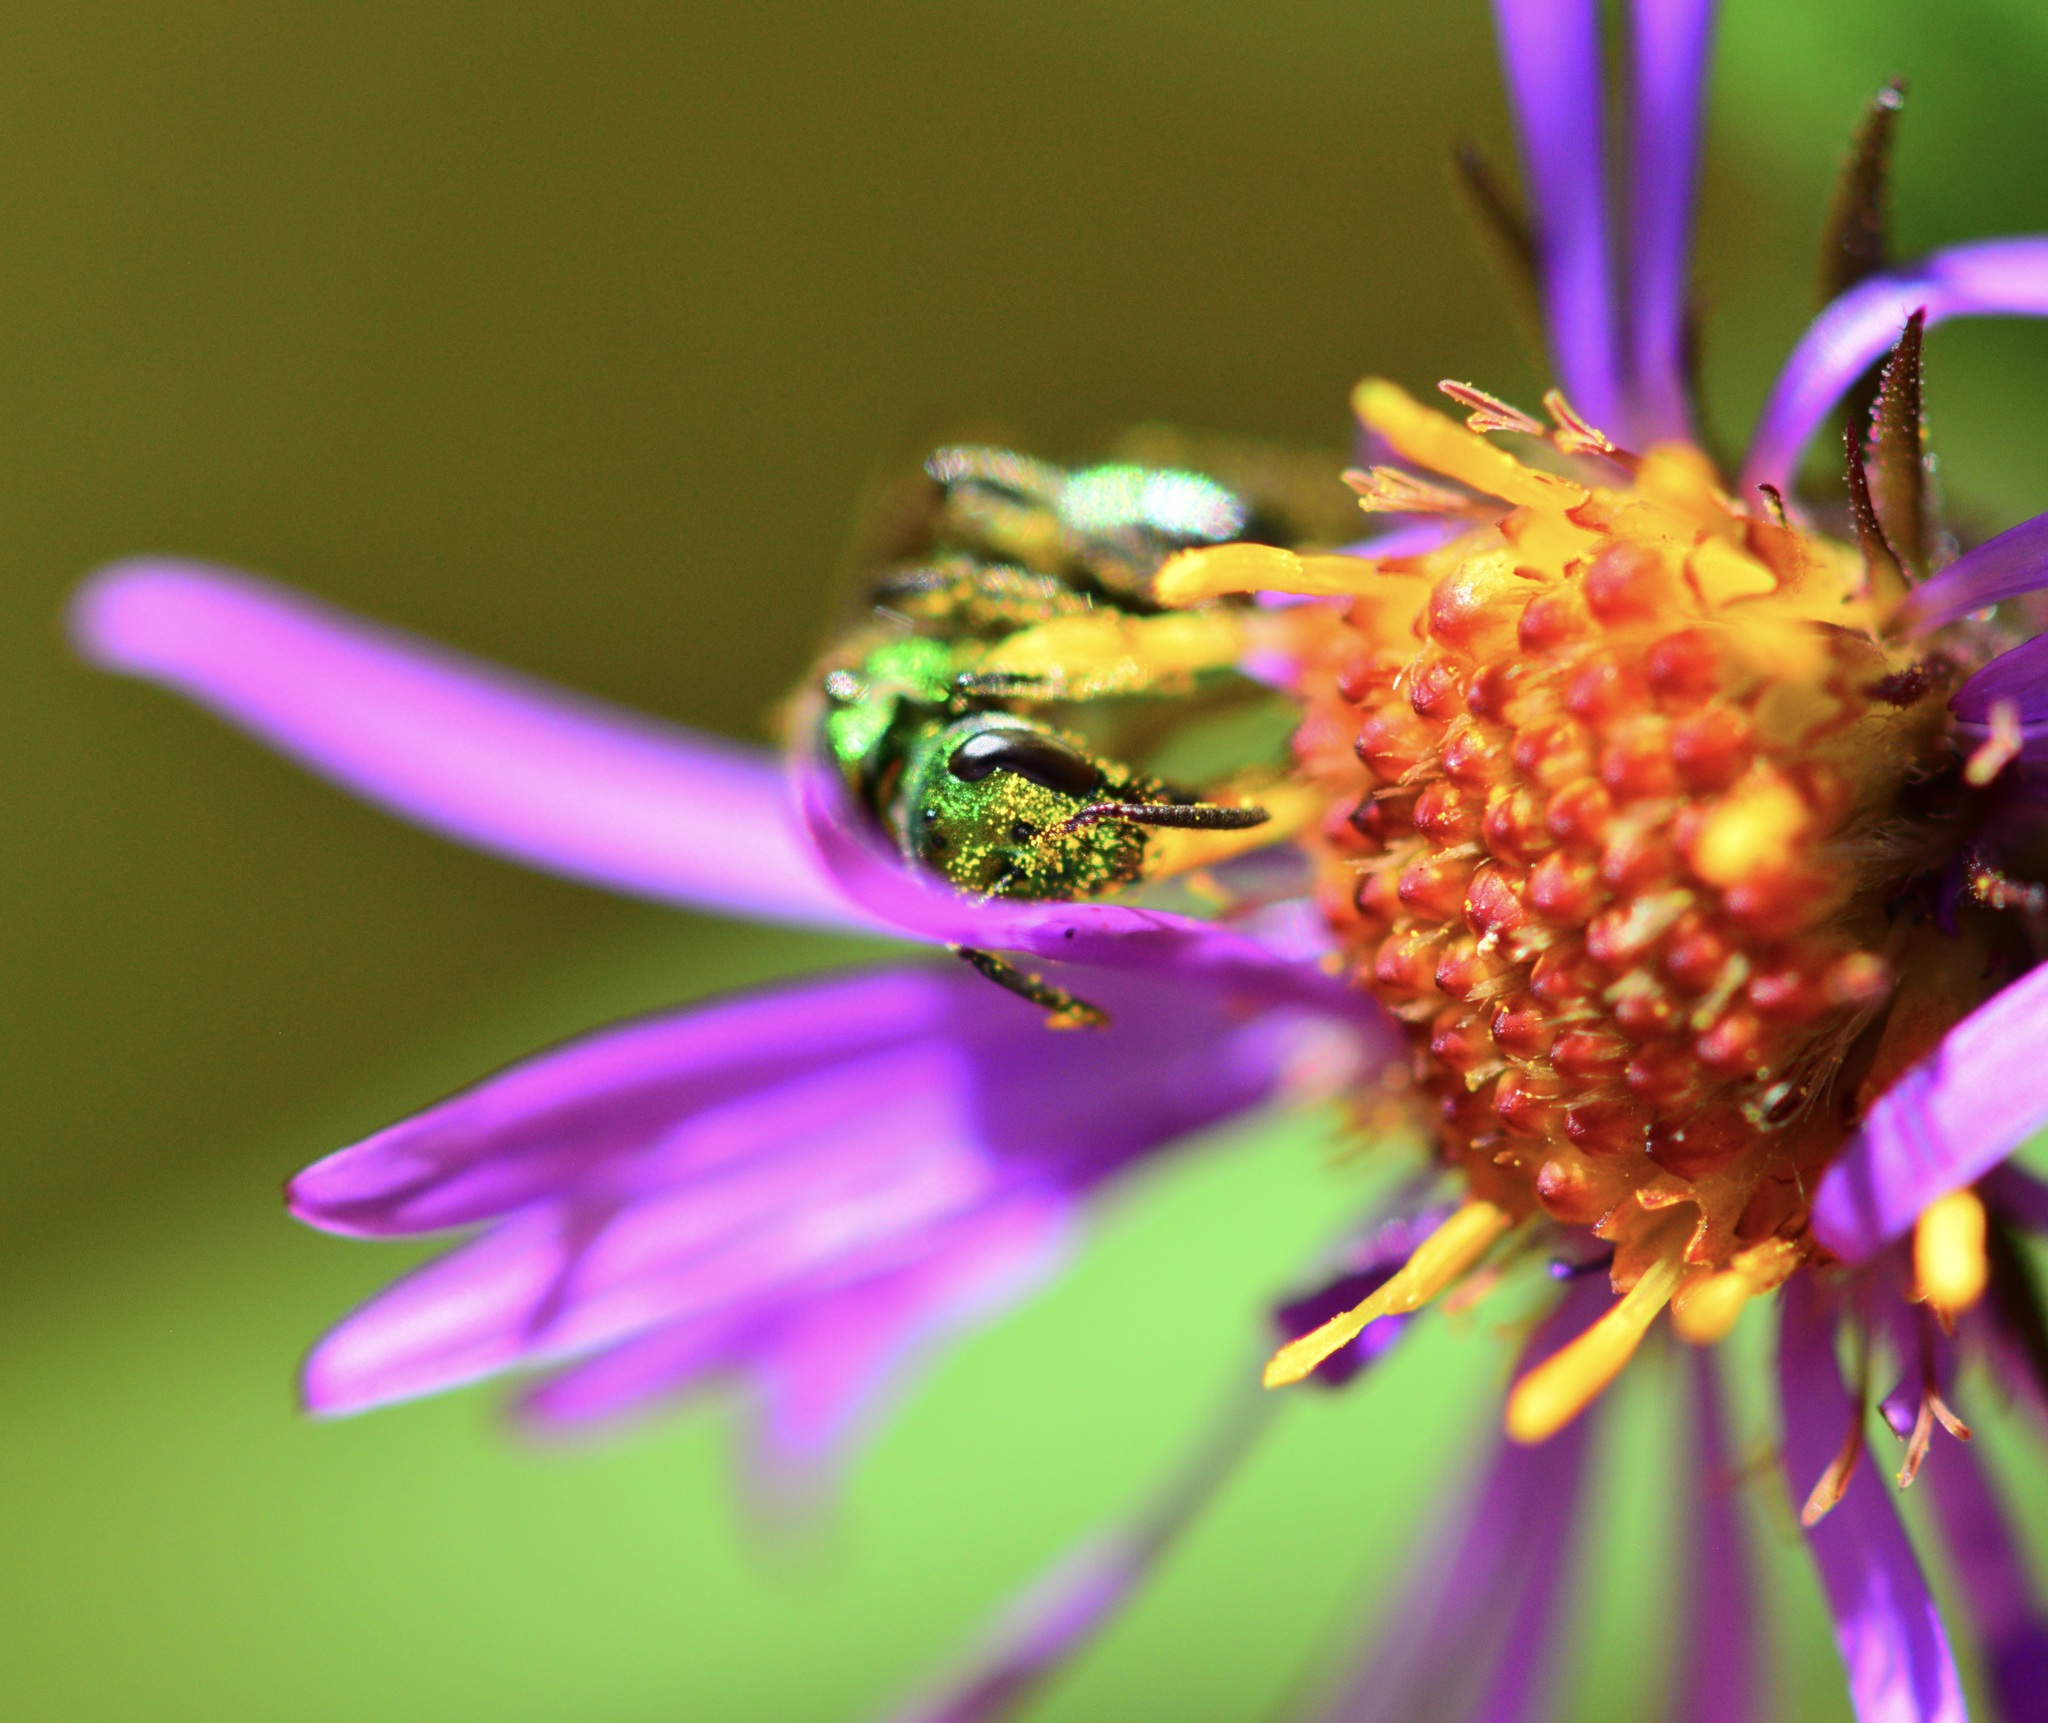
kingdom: Animalia
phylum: Arthropoda
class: Insecta
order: Hymenoptera
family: Halictidae
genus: Augochlora
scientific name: Augochlora pura
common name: Pure green sweat bee
